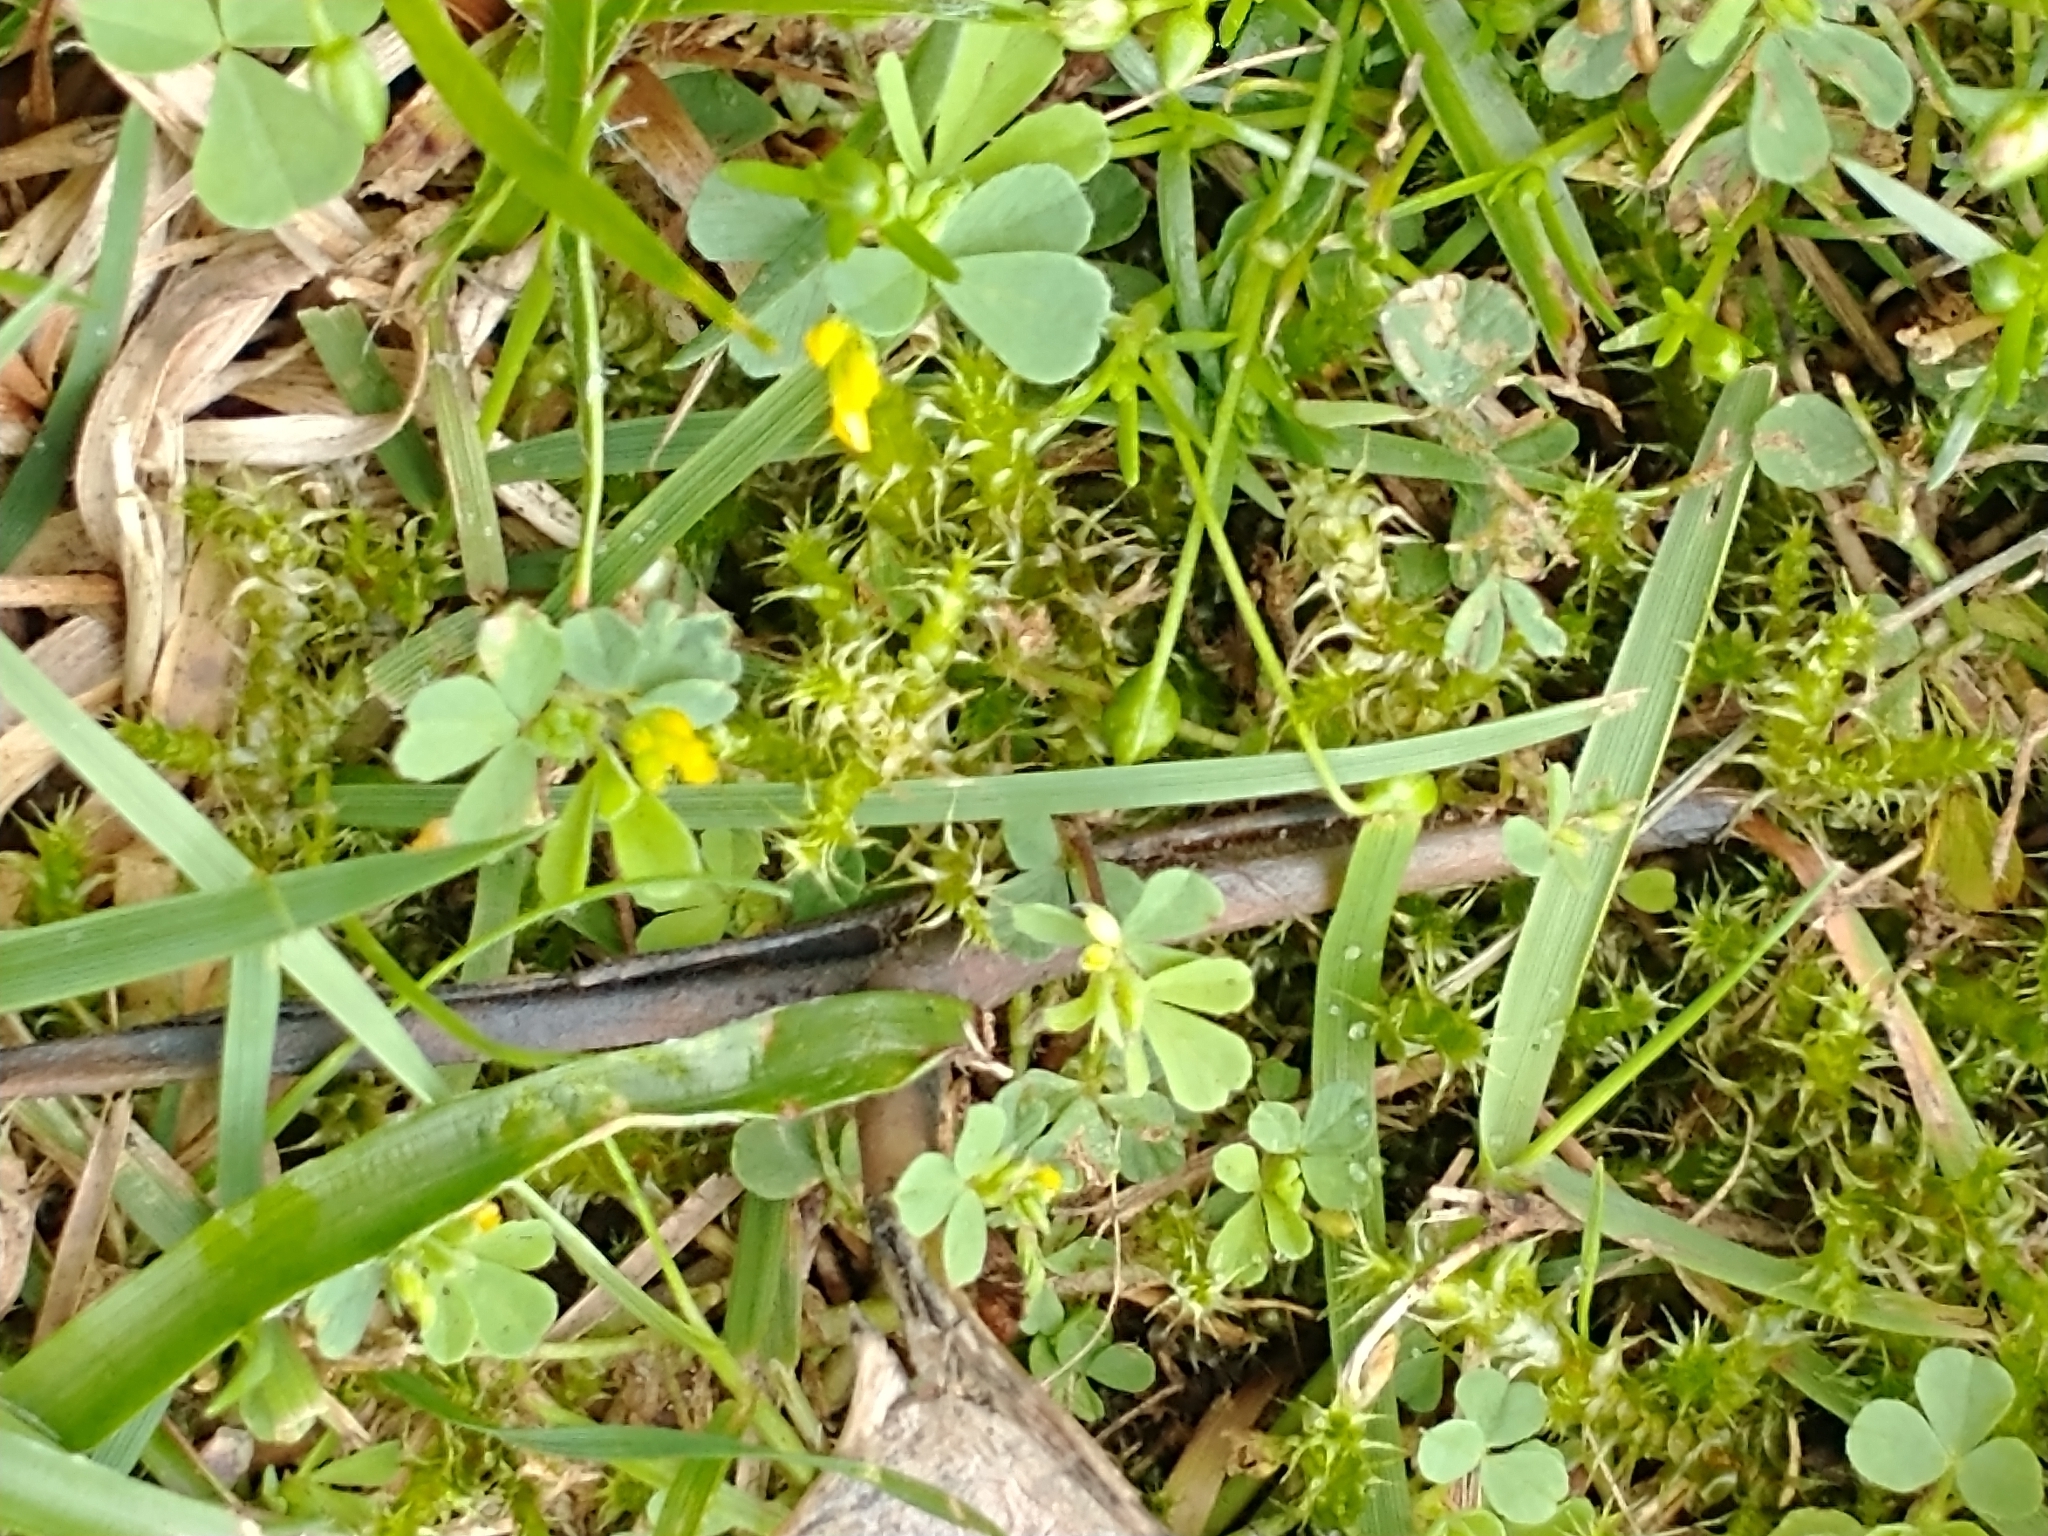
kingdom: Plantae
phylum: Tracheophyta
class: Magnoliopsida
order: Fabales
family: Fabaceae
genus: Trifolium
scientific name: Trifolium micranthum
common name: Slender trefoil
